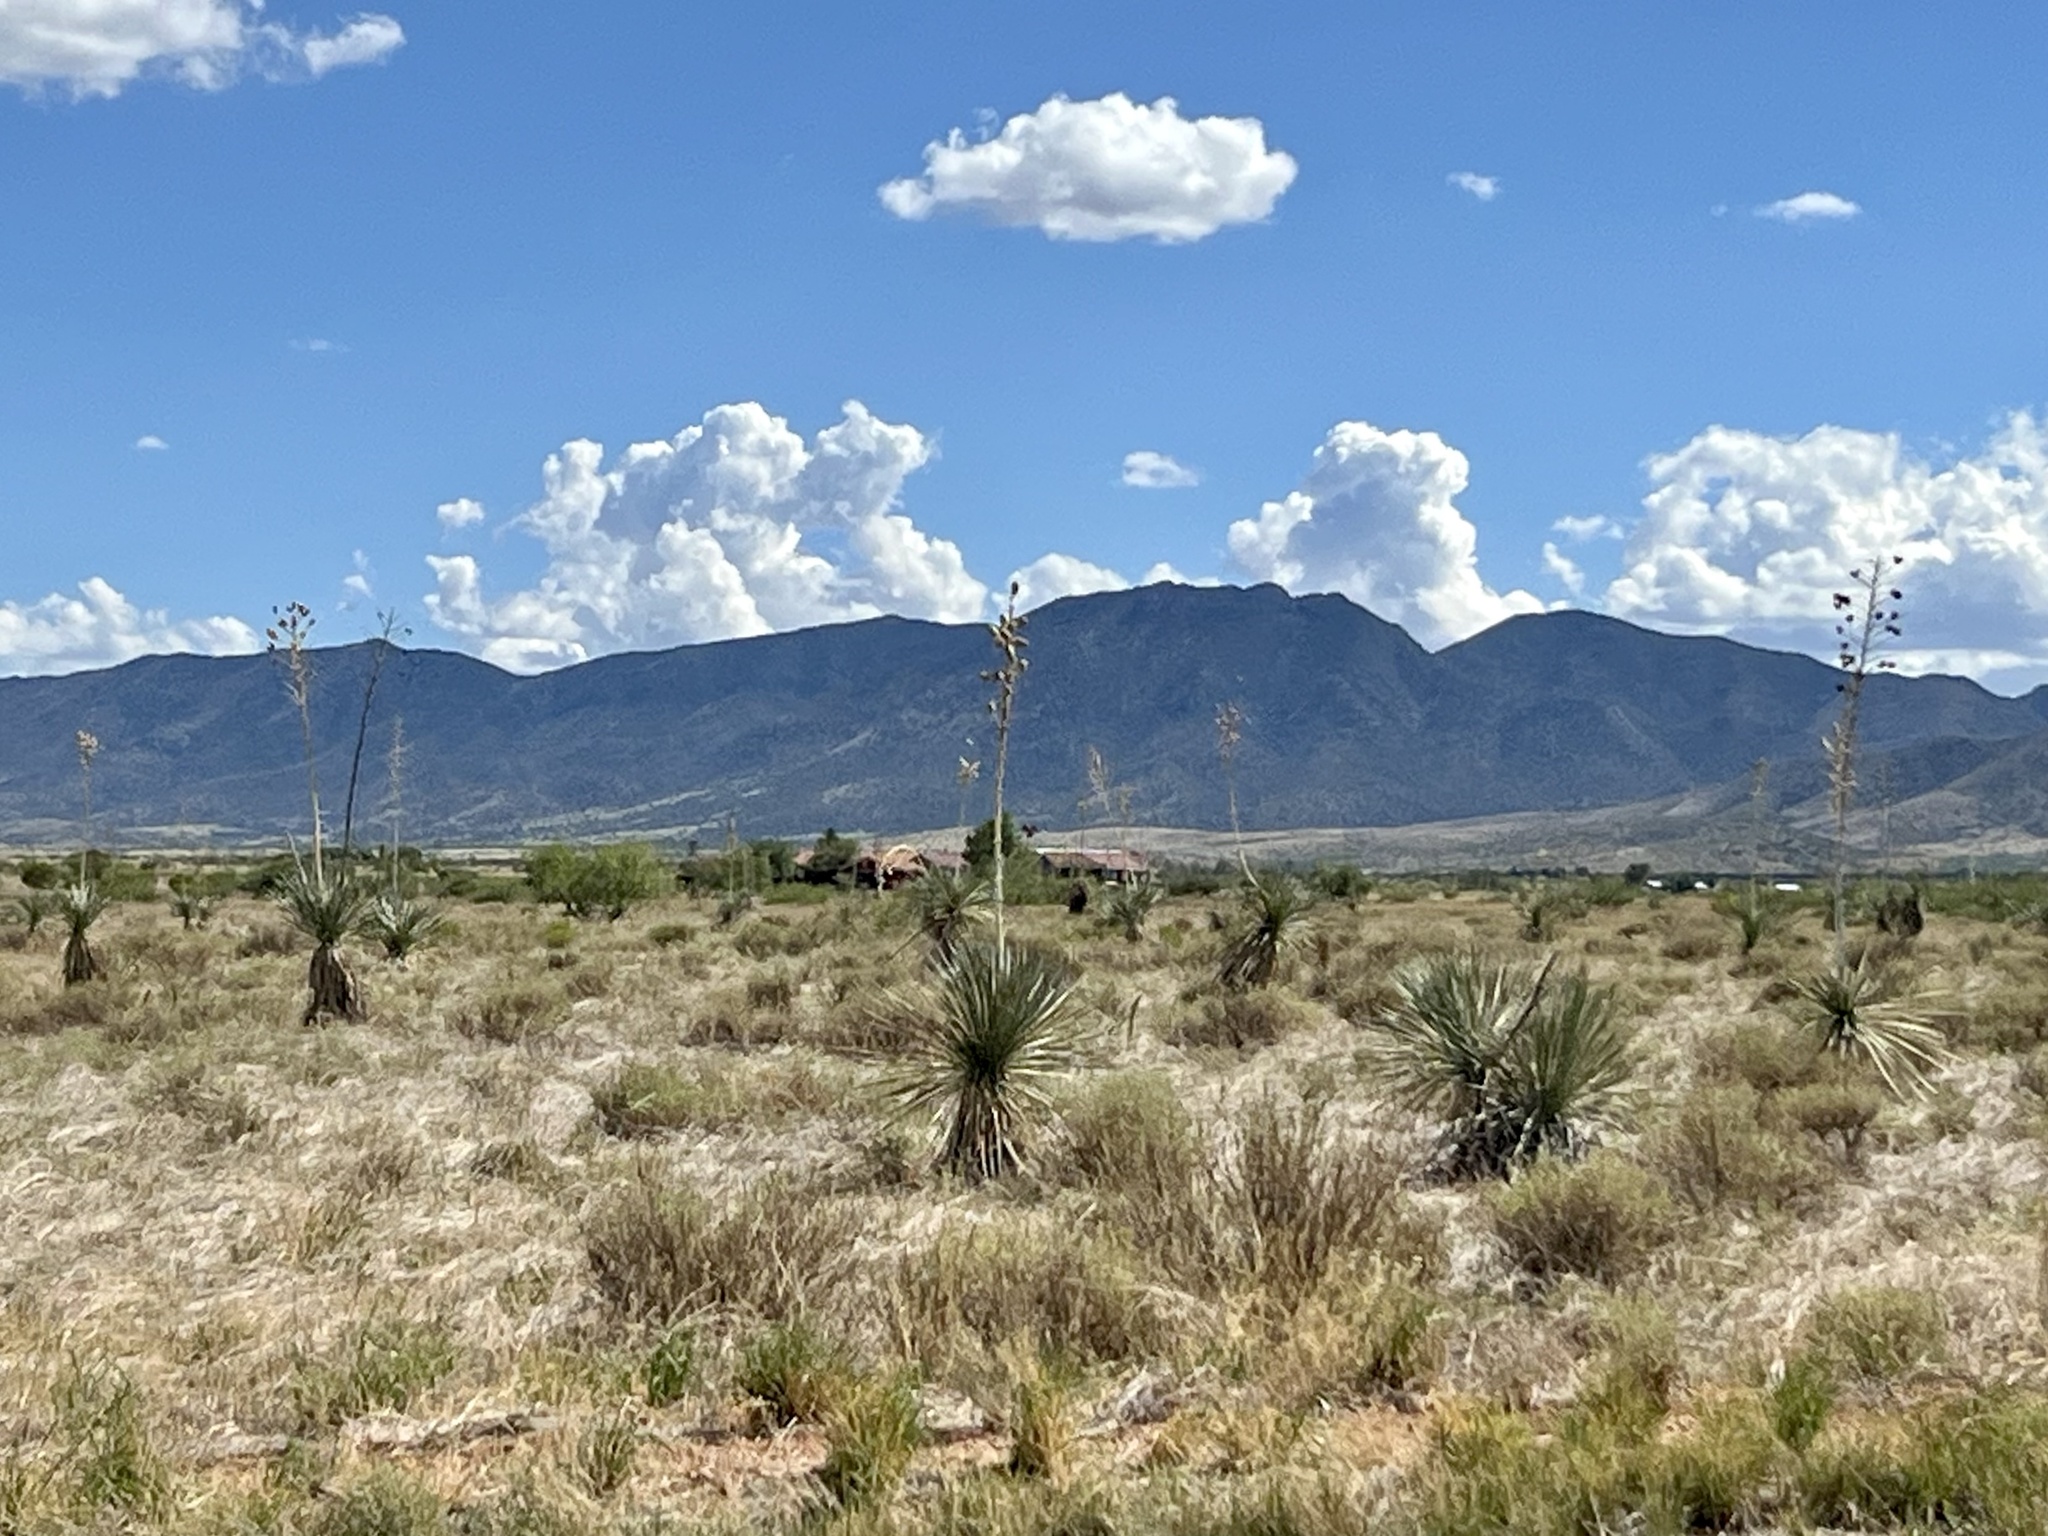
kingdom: Plantae
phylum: Tracheophyta
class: Liliopsida
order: Asparagales
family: Asparagaceae
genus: Yucca
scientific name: Yucca elata
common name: Palmella
